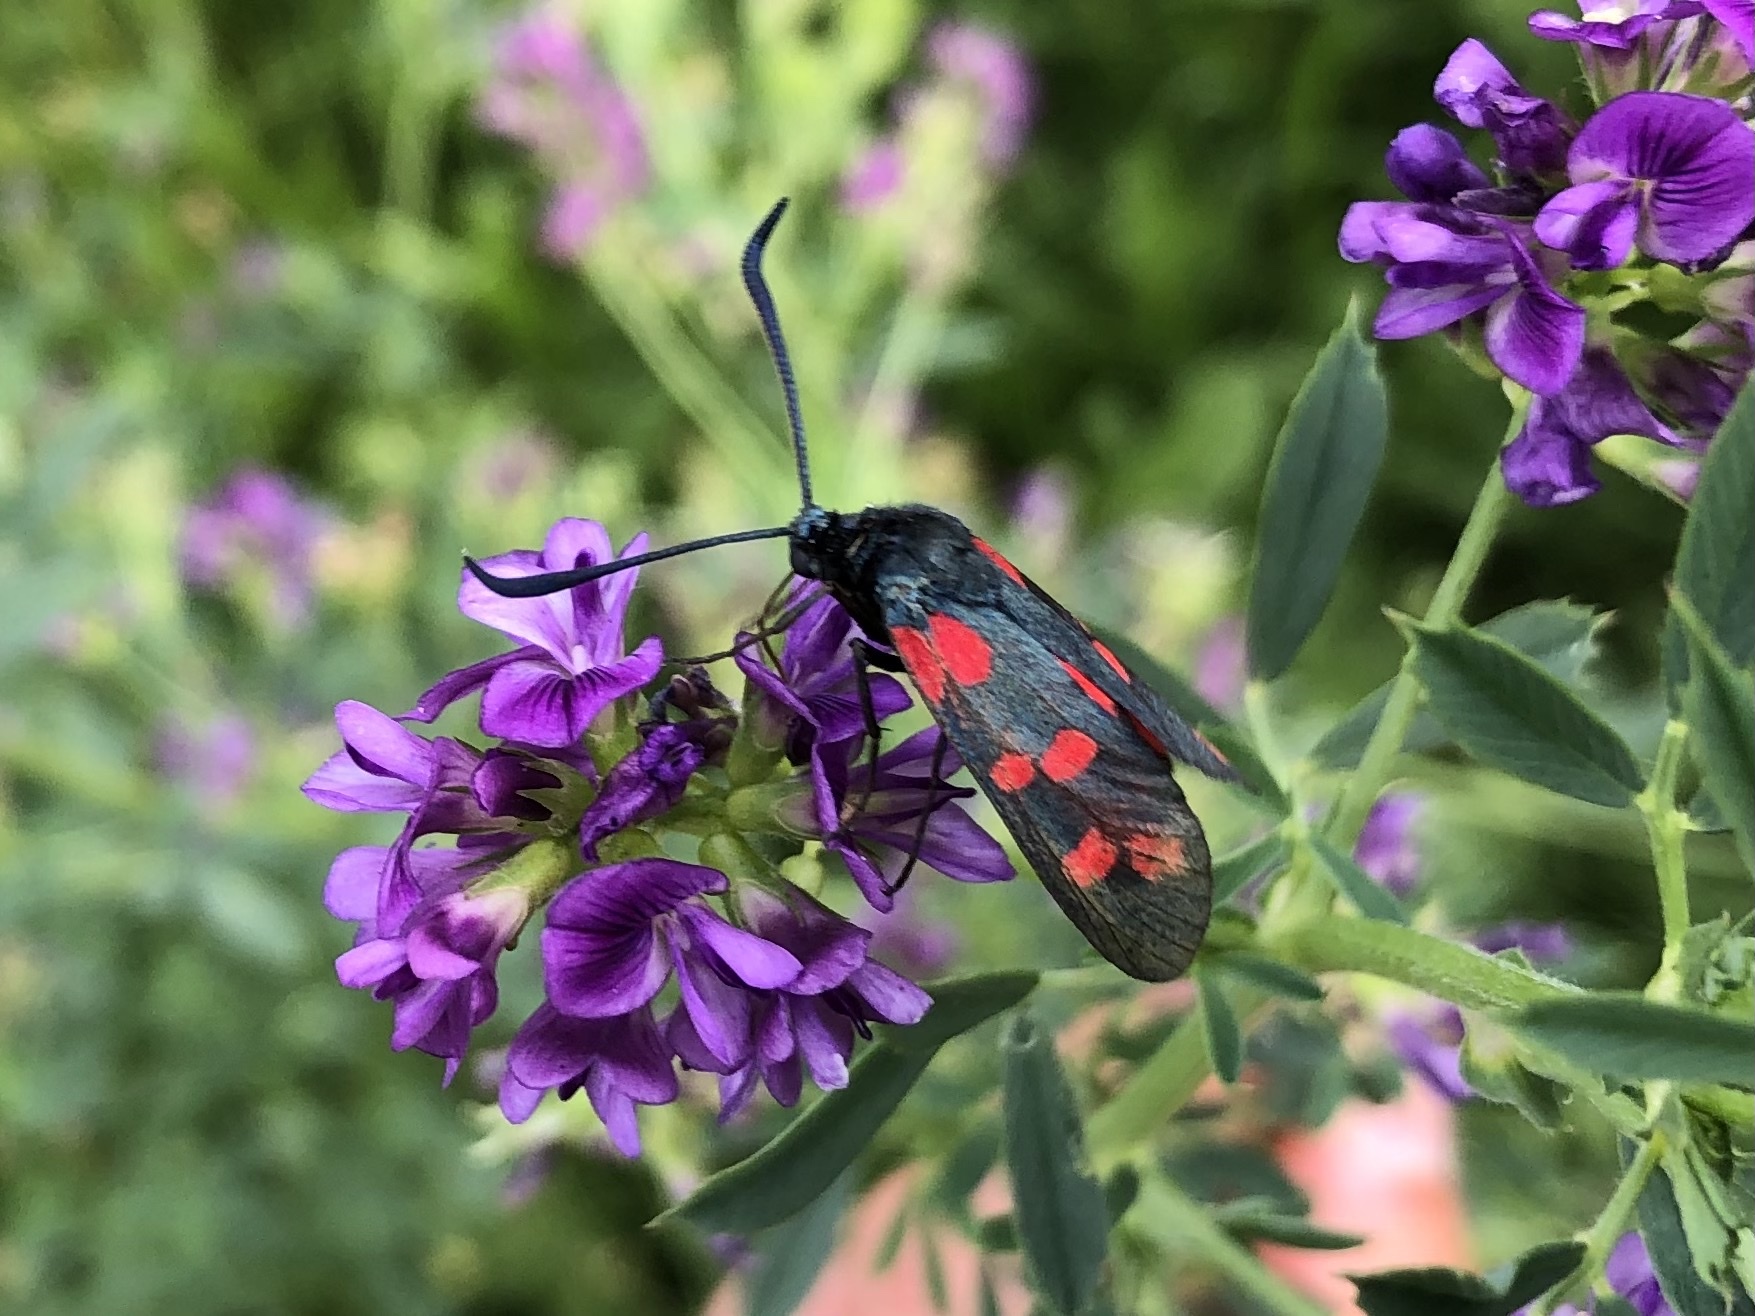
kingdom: Animalia
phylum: Arthropoda
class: Insecta
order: Lepidoptera
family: Zygaenidae
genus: Zygaena
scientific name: Zygaena filipendulae
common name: Six-spot burnet
